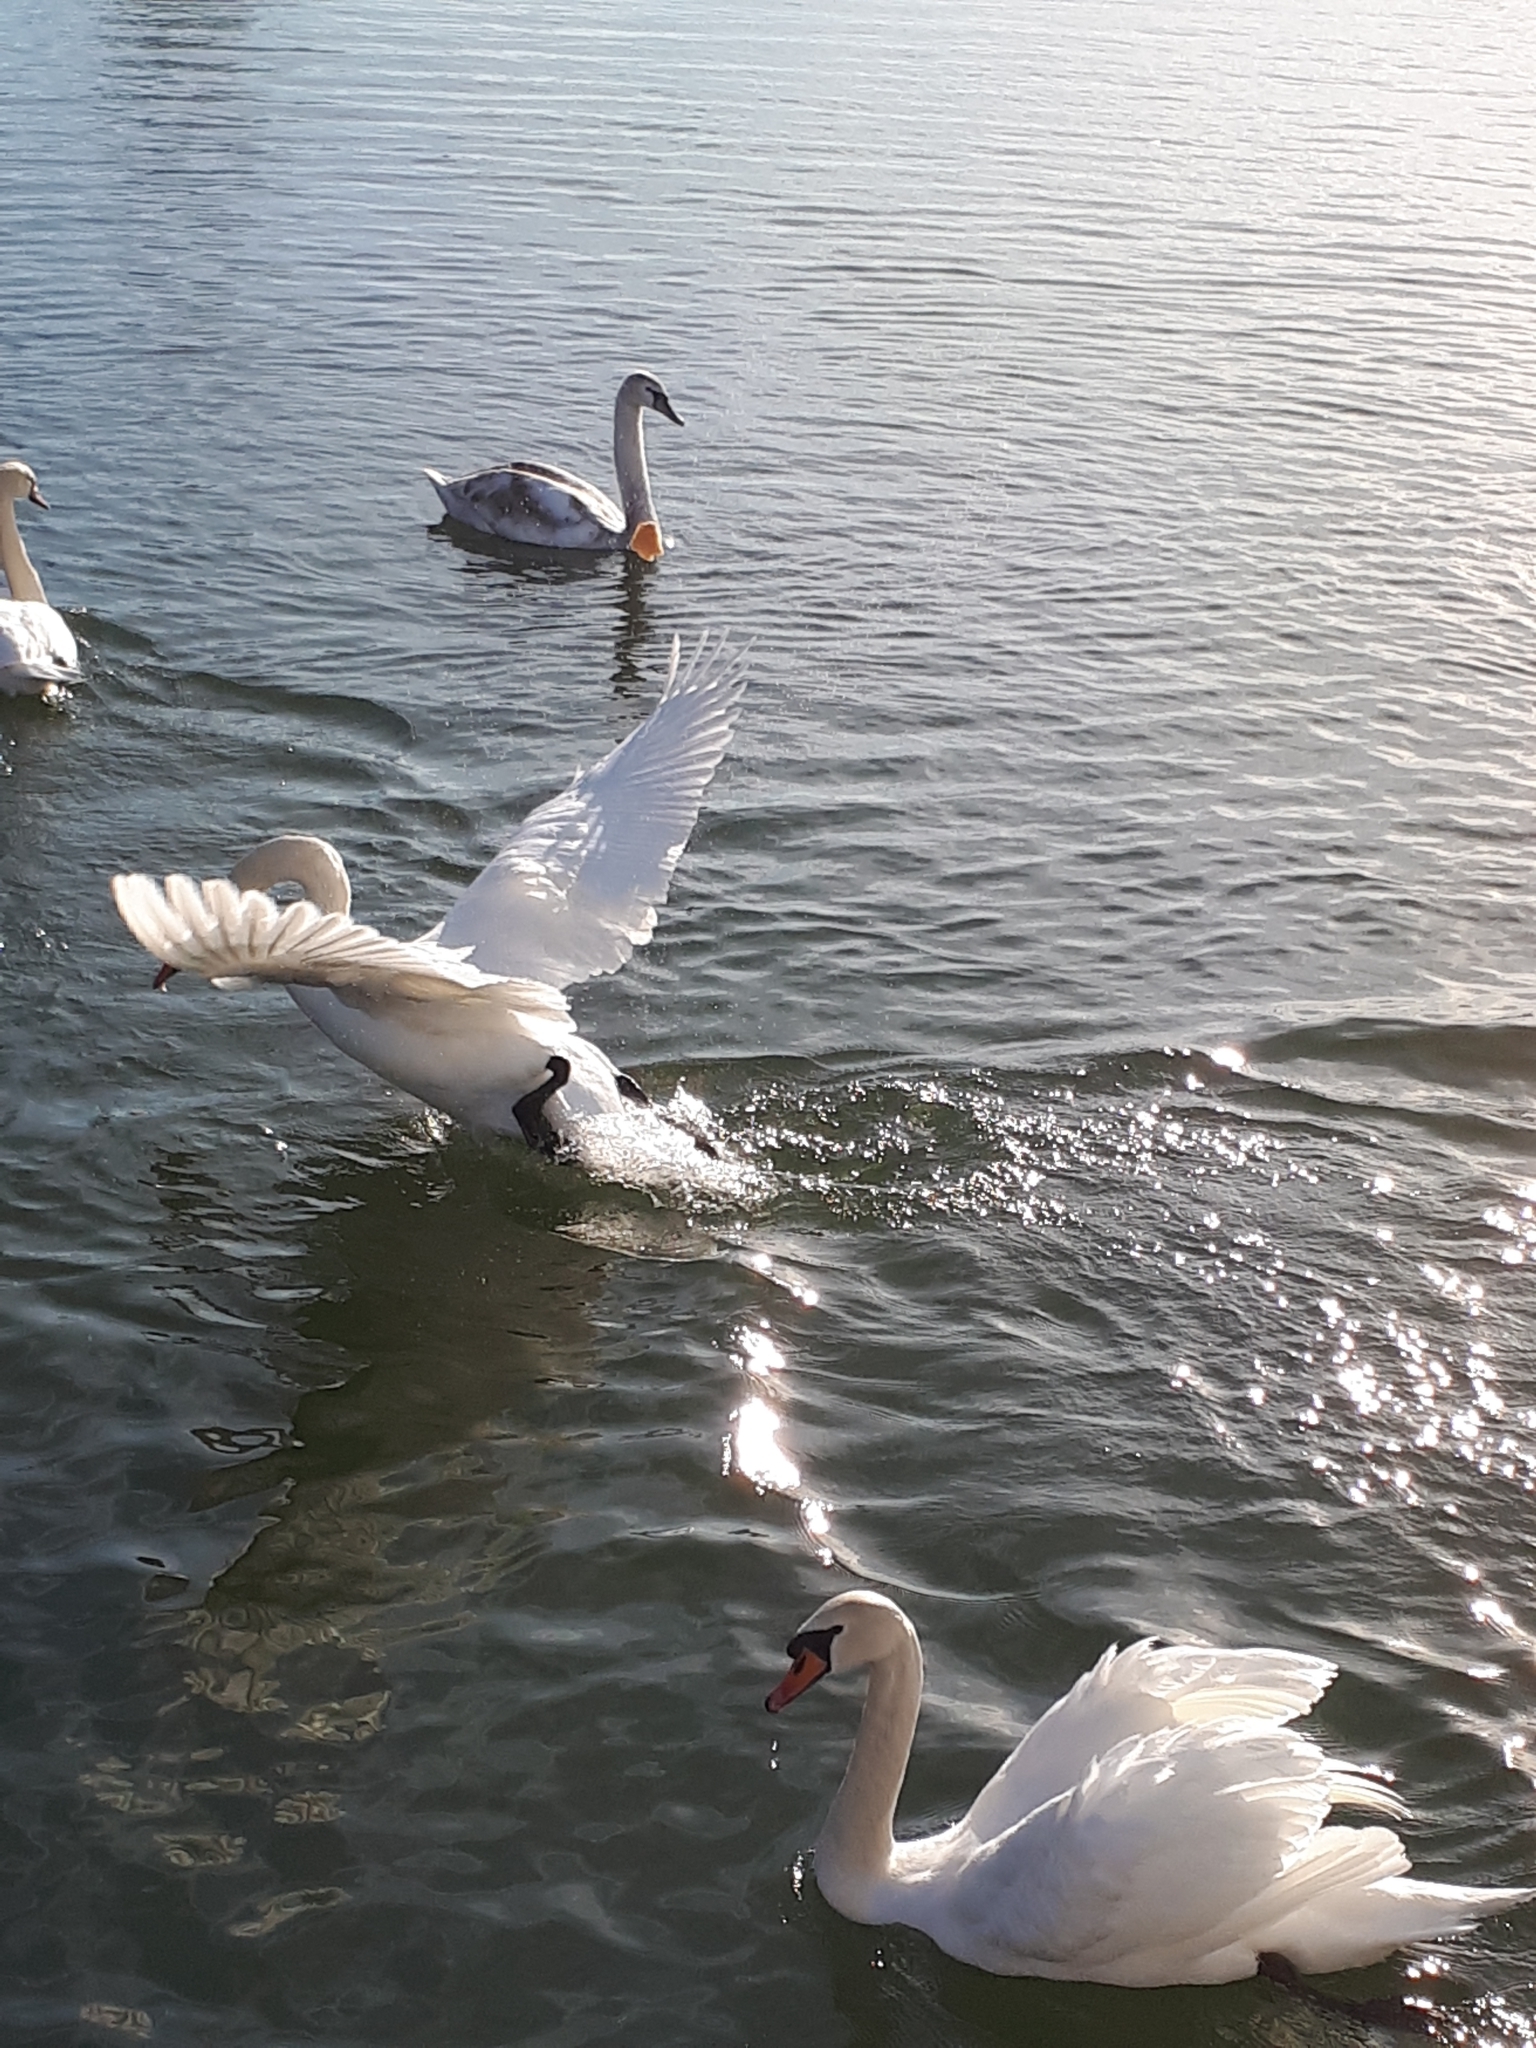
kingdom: Animalia
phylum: Chordata
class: Aves
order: Anseriformes
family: Anatidae
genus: Cygnus
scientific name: Cygnus olor
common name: Mute swan
